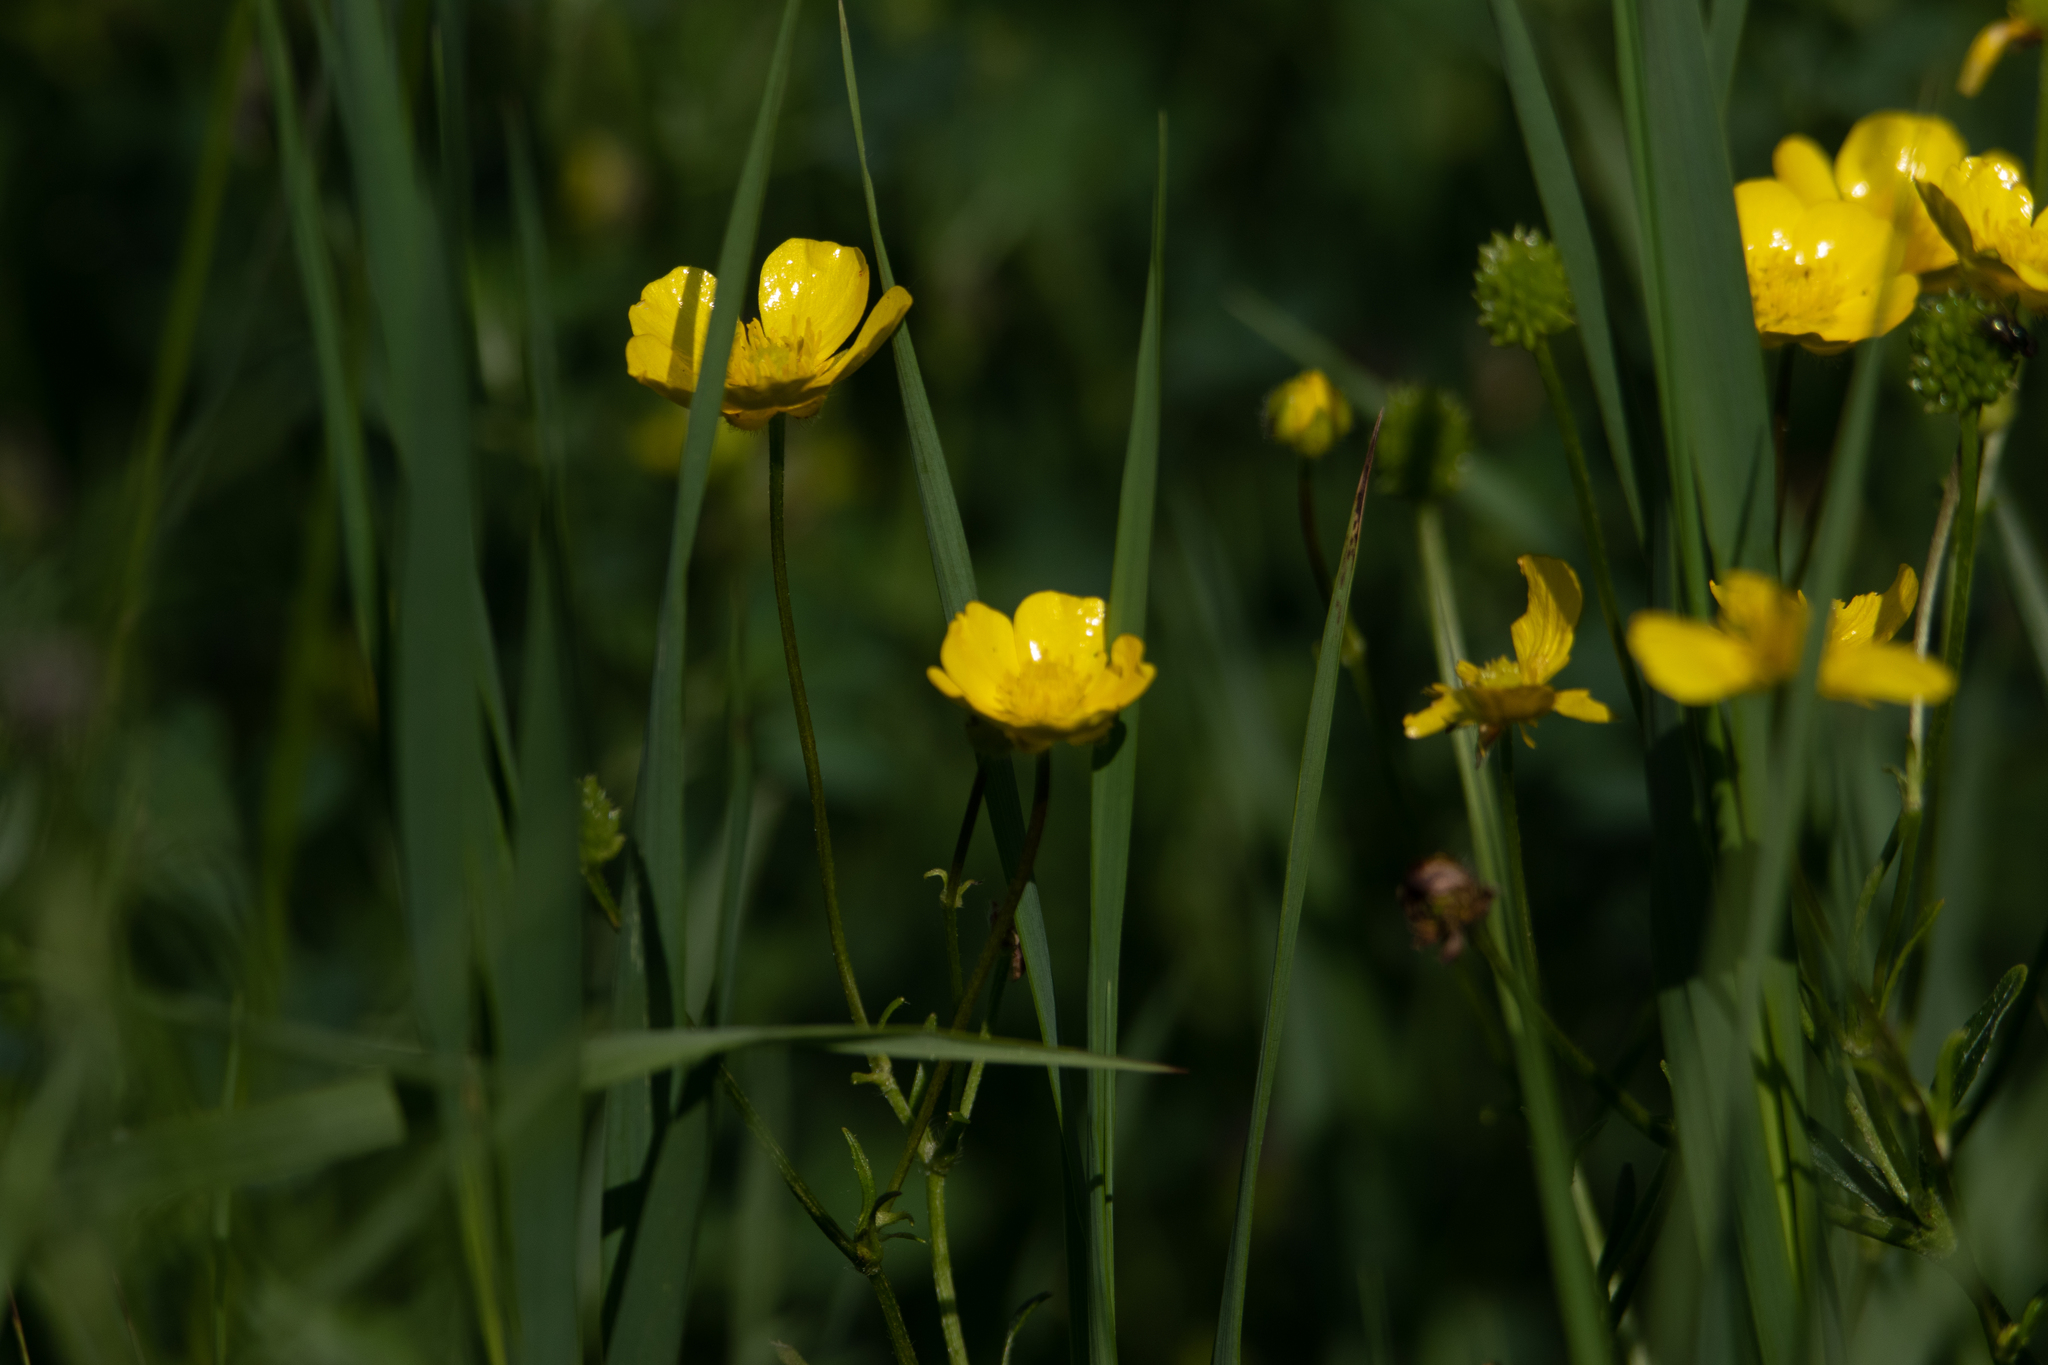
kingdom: Plantae
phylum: Tracheophyta
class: Magnoliopsida
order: Ranunculales
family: Ranunculaceae
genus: Ranunculus
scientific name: Ranunculus polyanthemos
